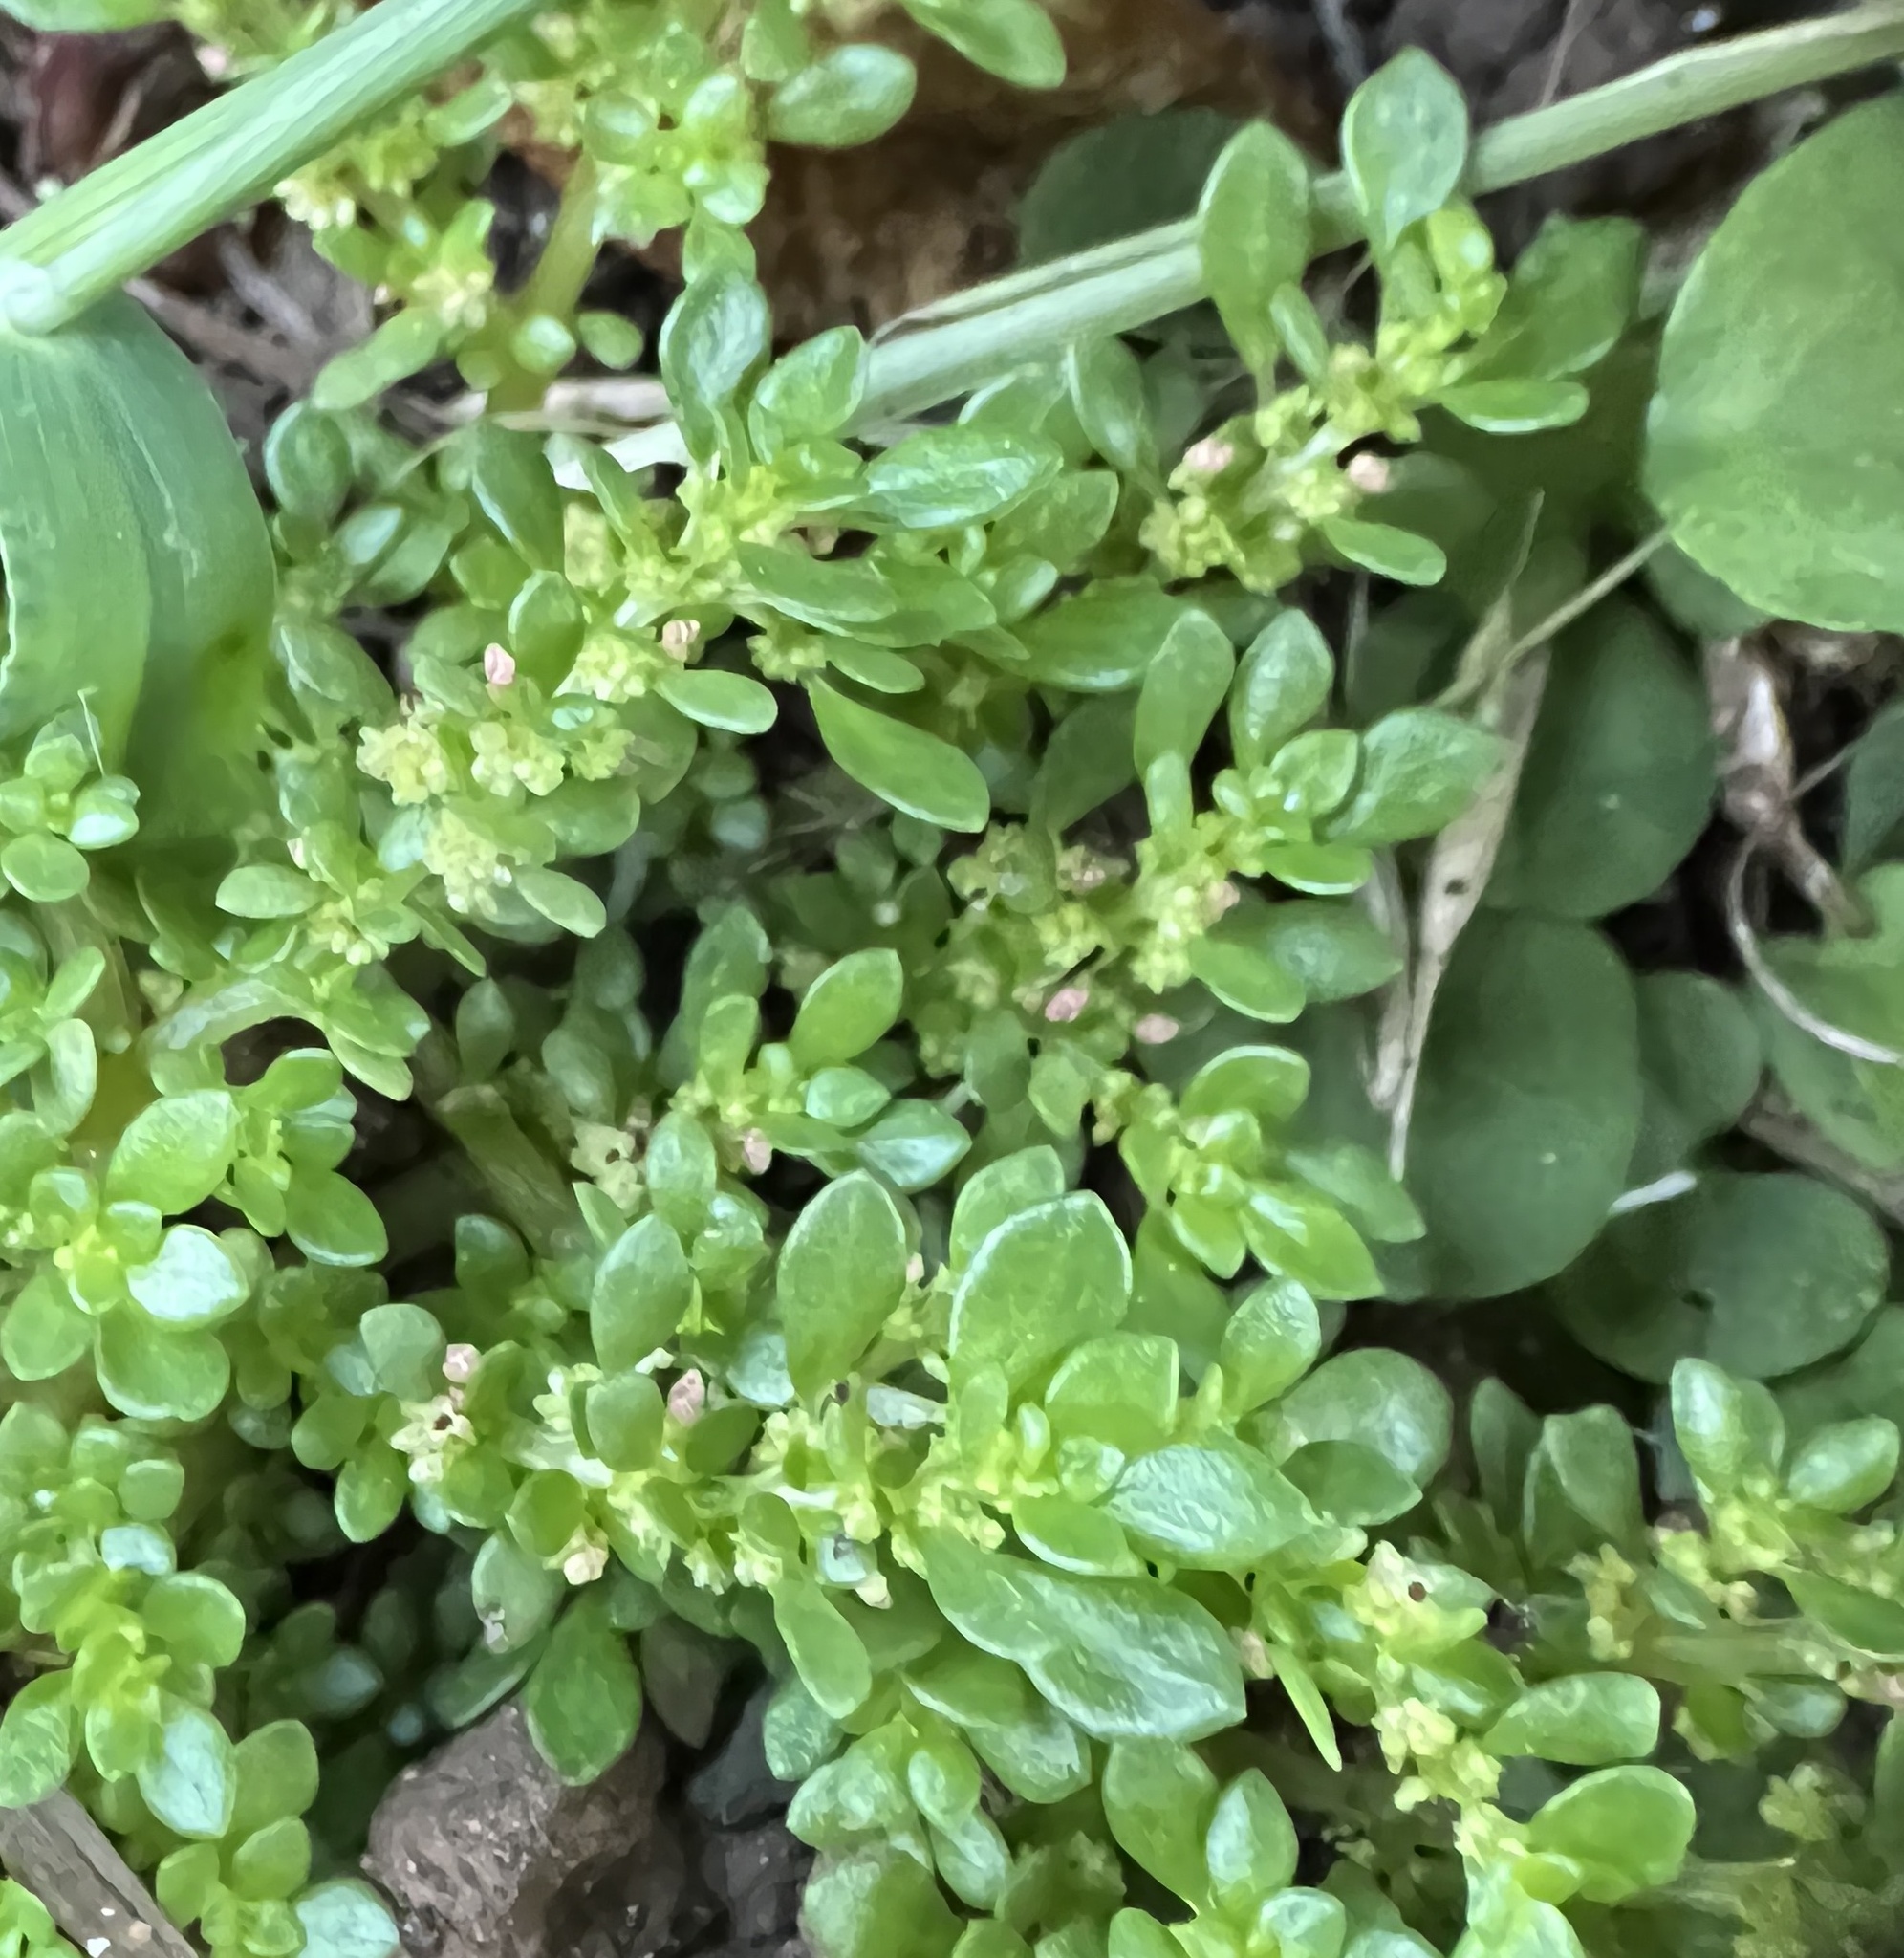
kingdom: Plantae
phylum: Tracheophyta
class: Magnoliopsida
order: Rosales
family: Urticaceae
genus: Pilea
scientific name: Pilea microphylla
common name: Artillery-plant
